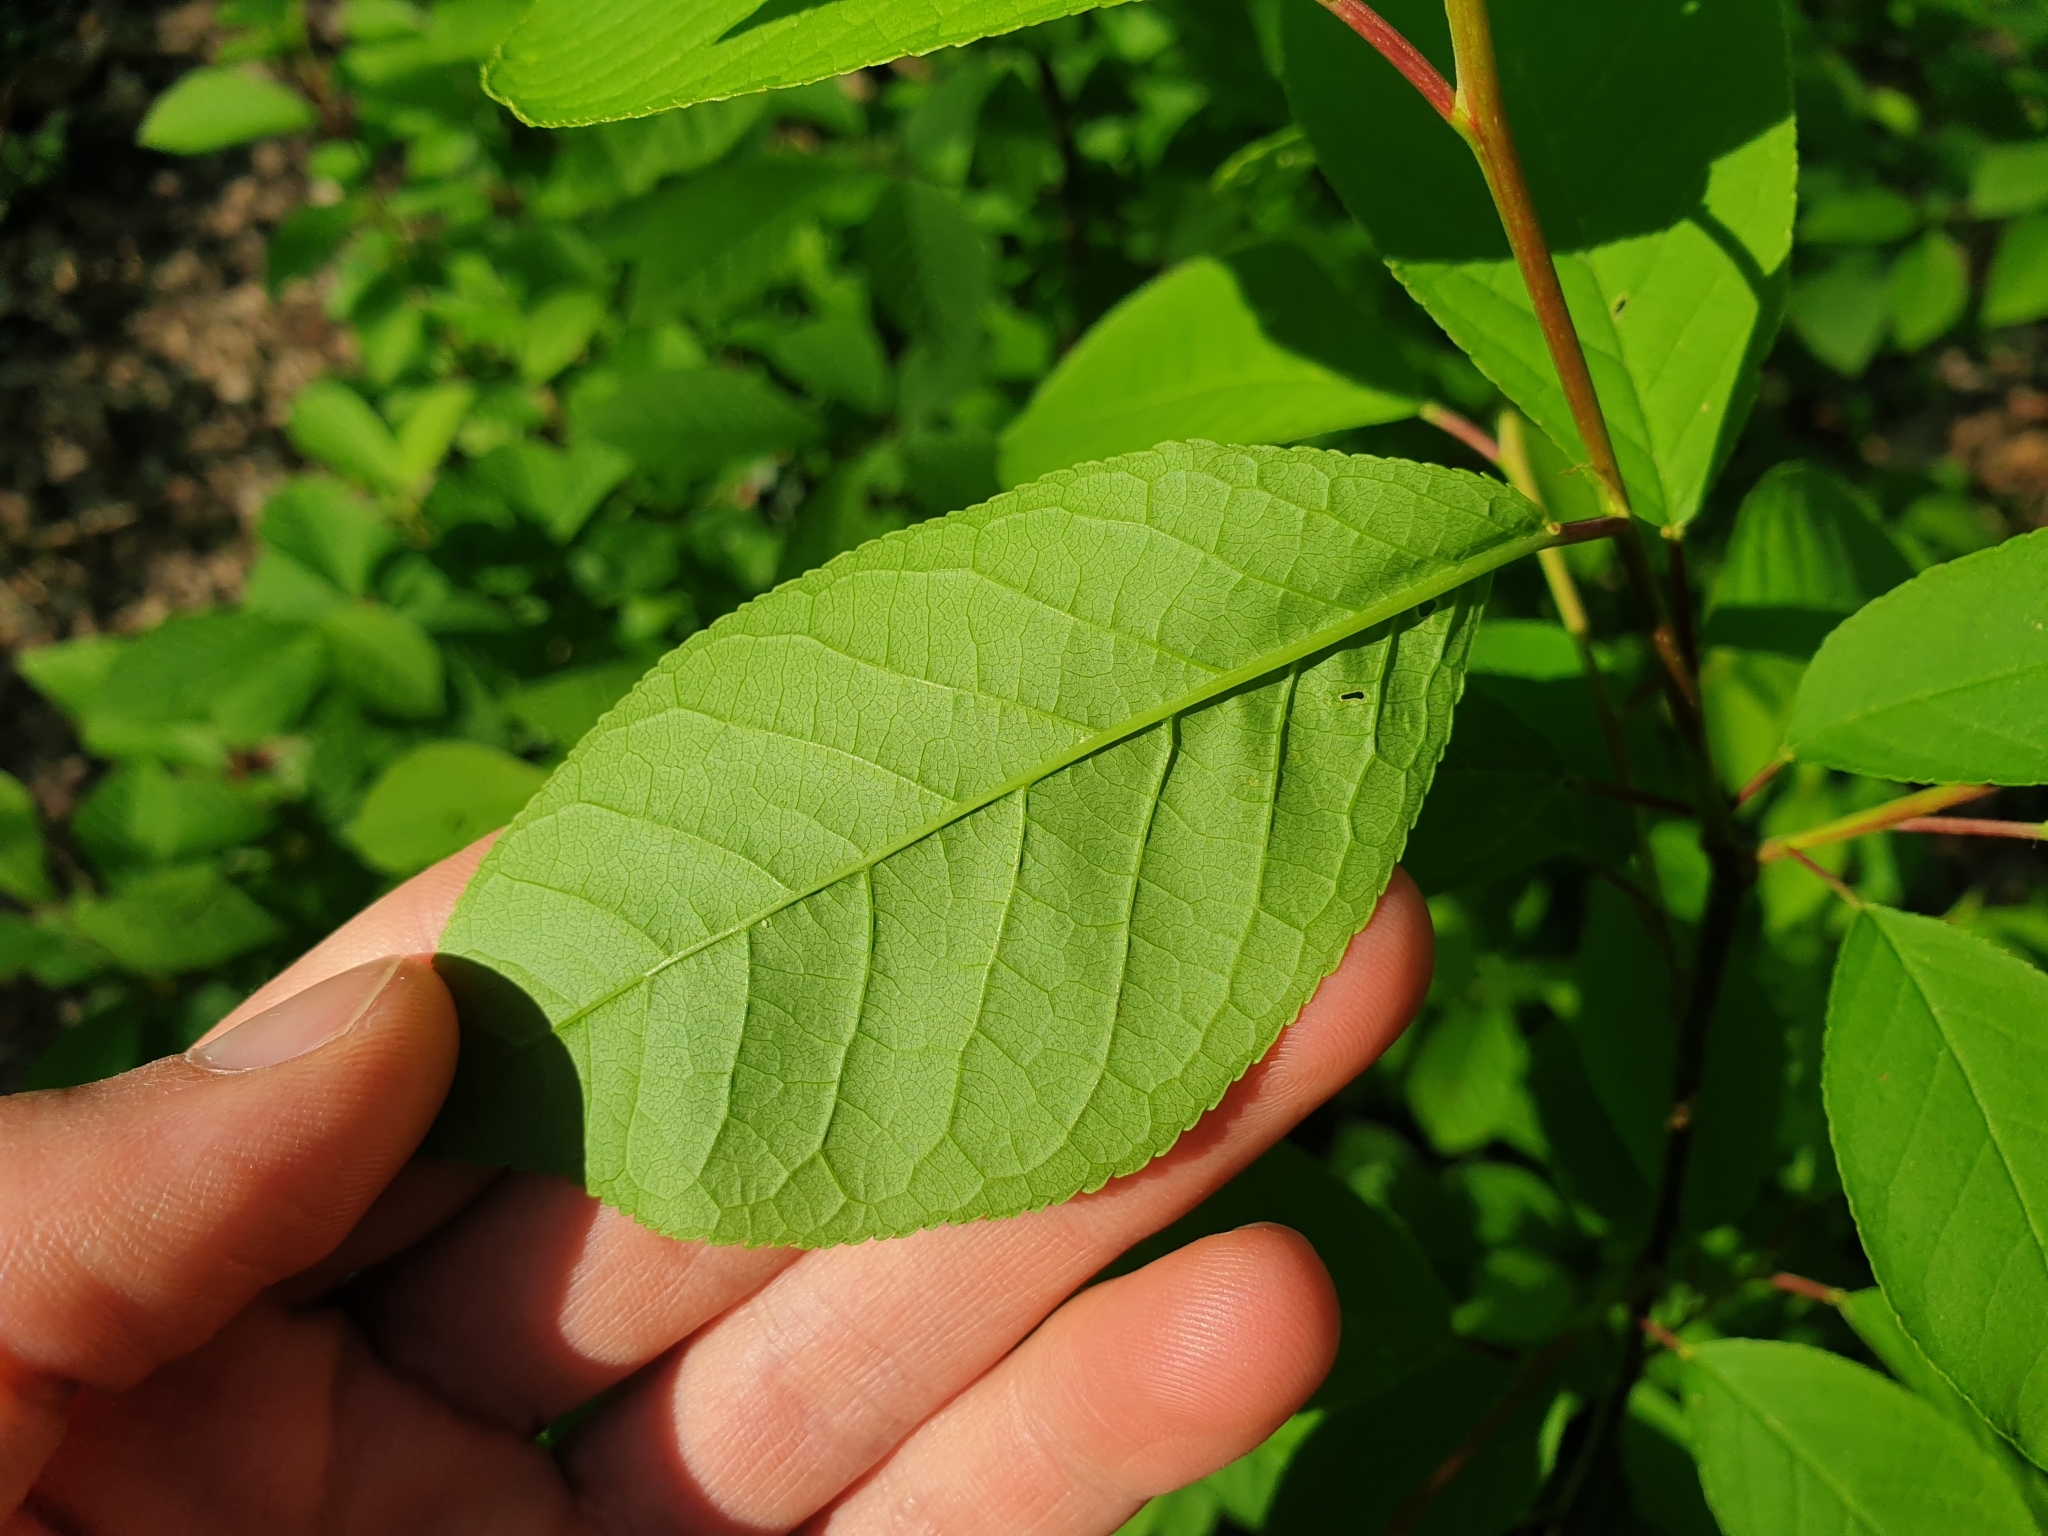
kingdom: Plantae
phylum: Tracheophyta
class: Magnoliopsida
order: Rosales
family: Rosaceae
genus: Prunus
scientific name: Prunus padus
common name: Bird cherry
